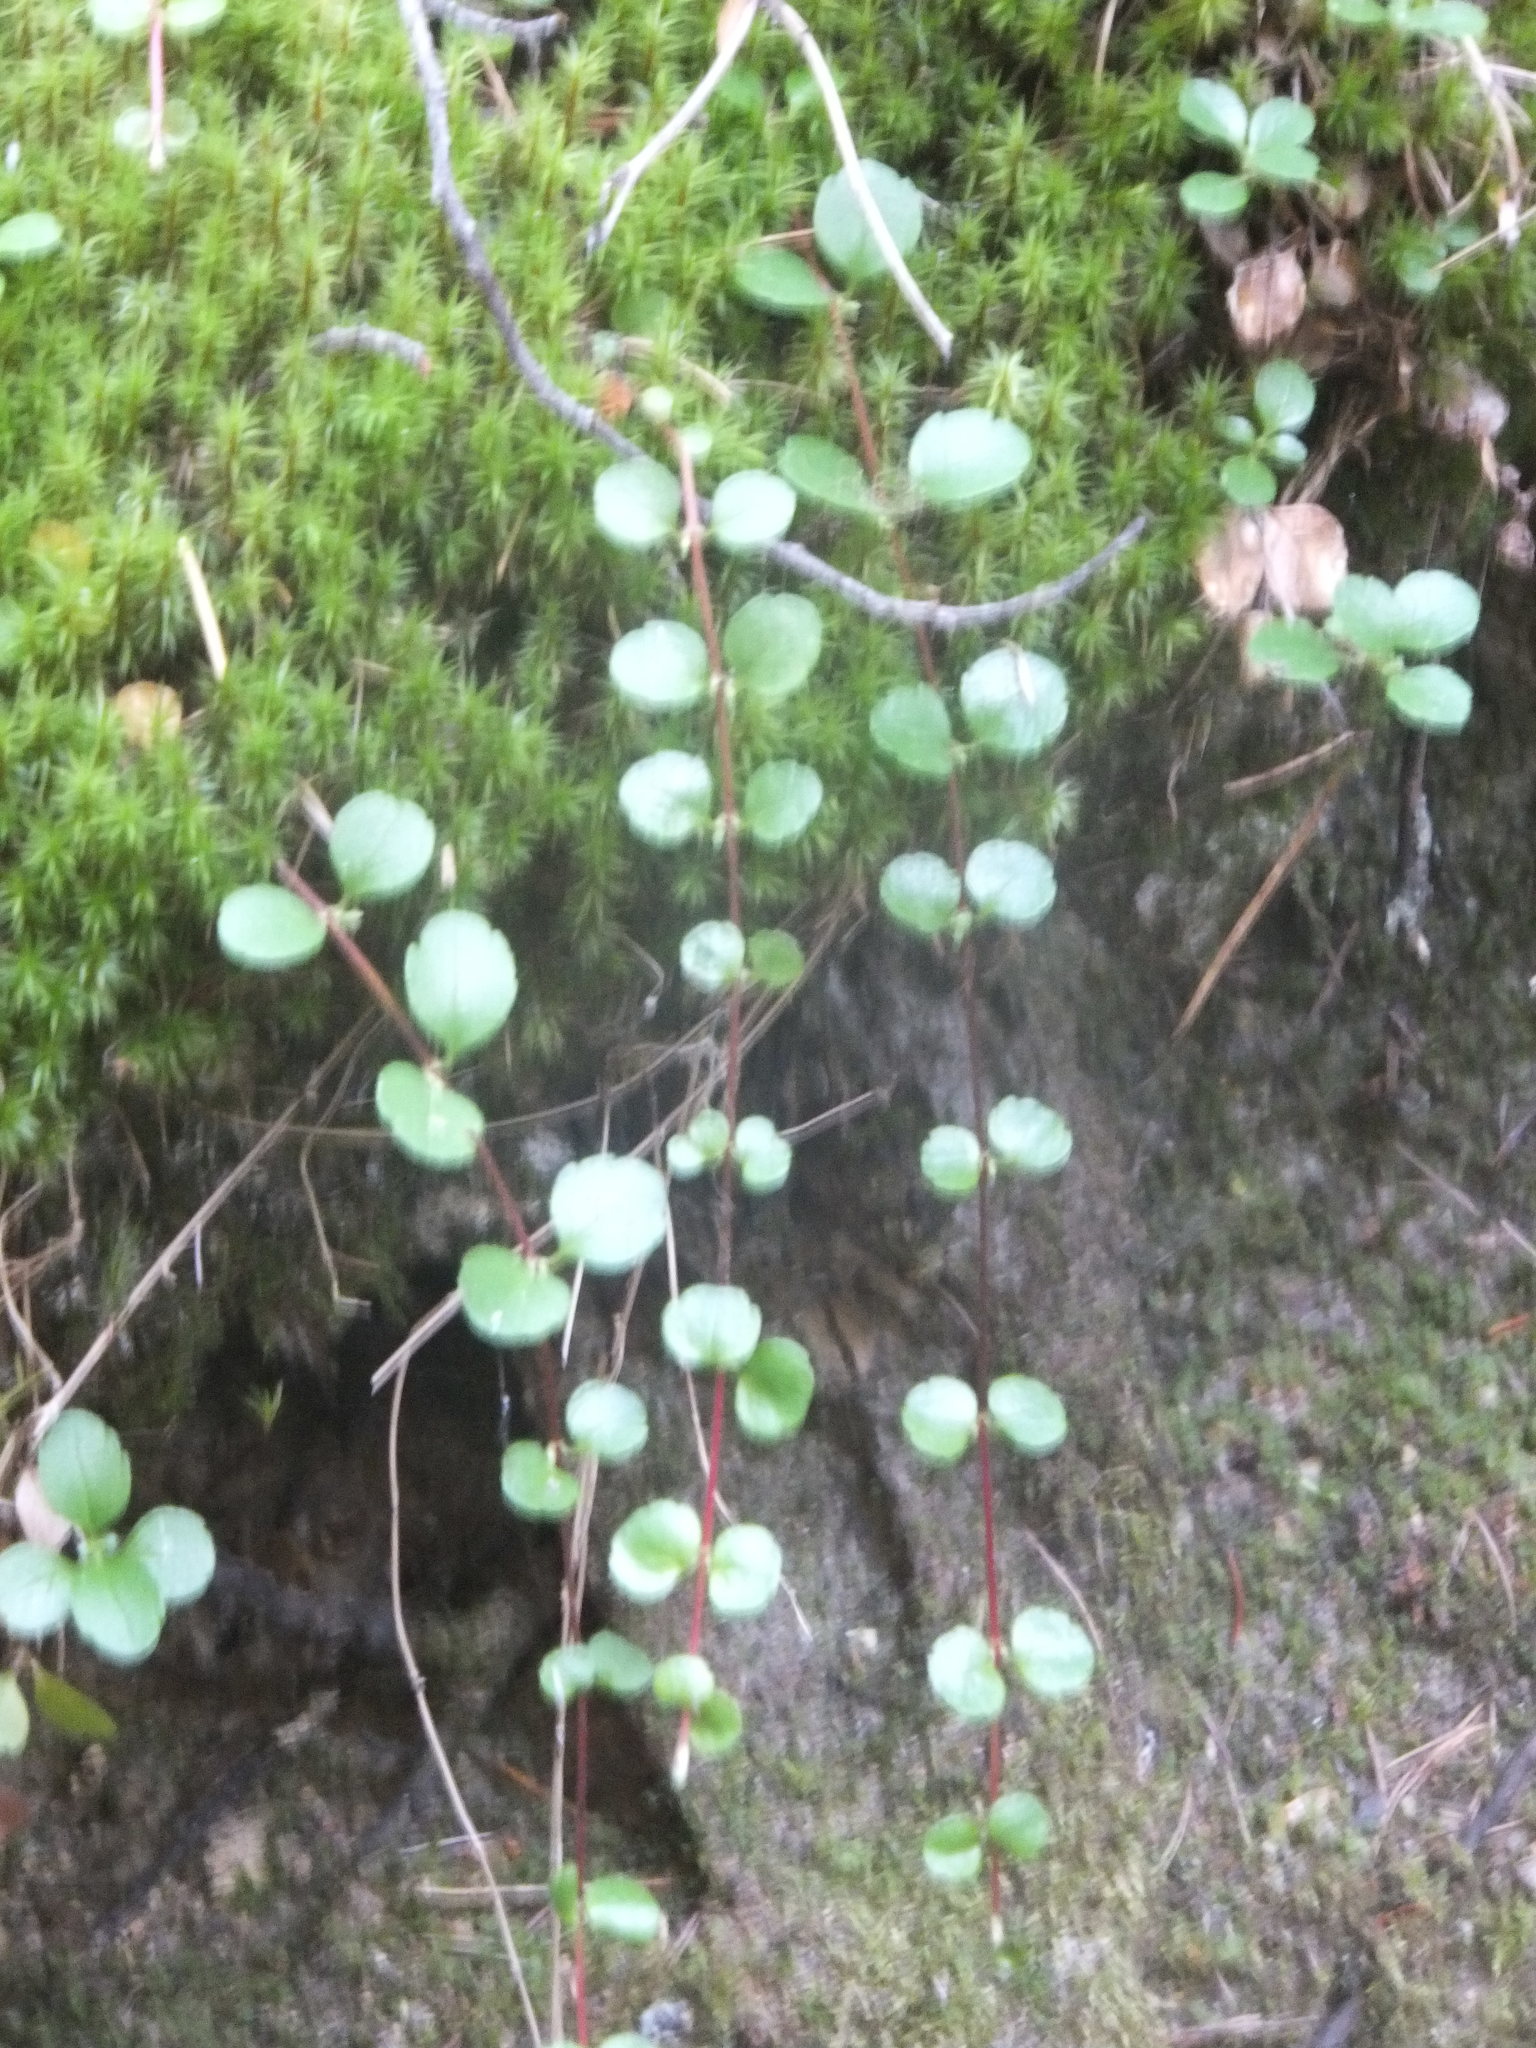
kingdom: Plantae
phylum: Tracheophyta
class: Magnoliopsida
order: Dipsacales
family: Caprifoliaceae
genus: Linnaea
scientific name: Linnaea borealis
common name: Twinflower
